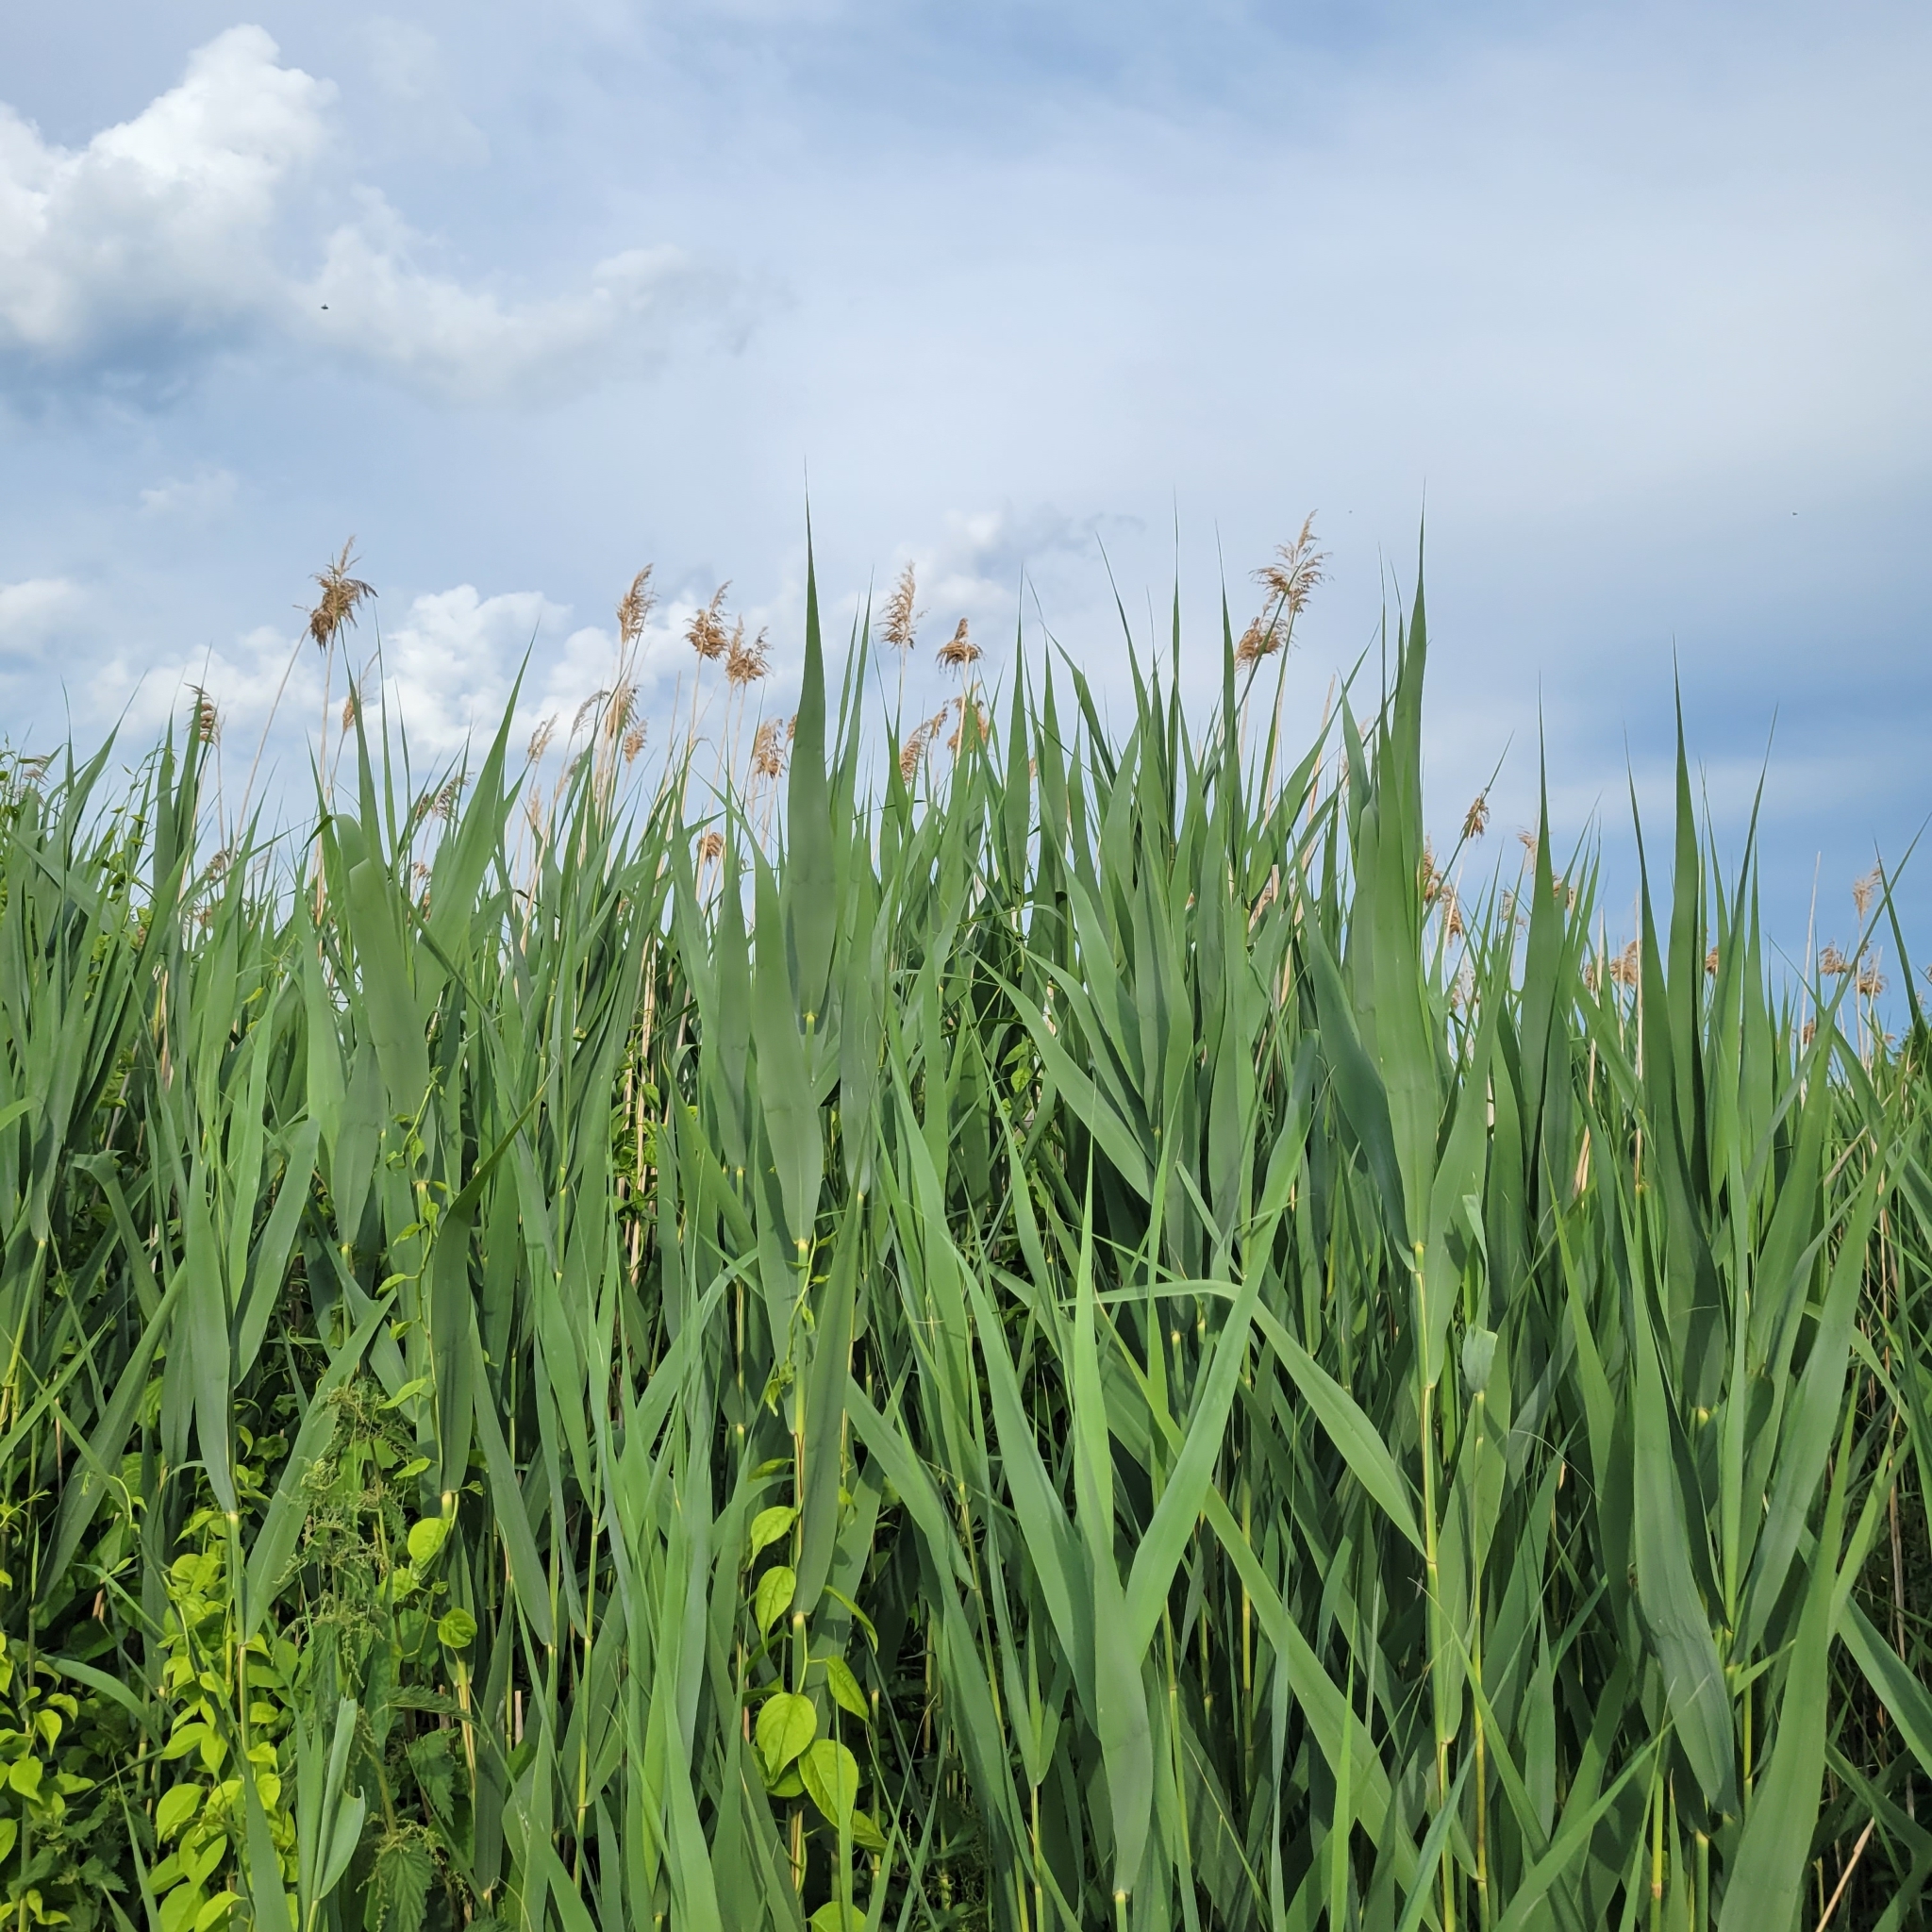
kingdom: Plantae
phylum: Tracheophyta
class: Liliopsida
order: Poales
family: Poaceae
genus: Phragmites
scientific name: Phragmites australis
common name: Common reed
